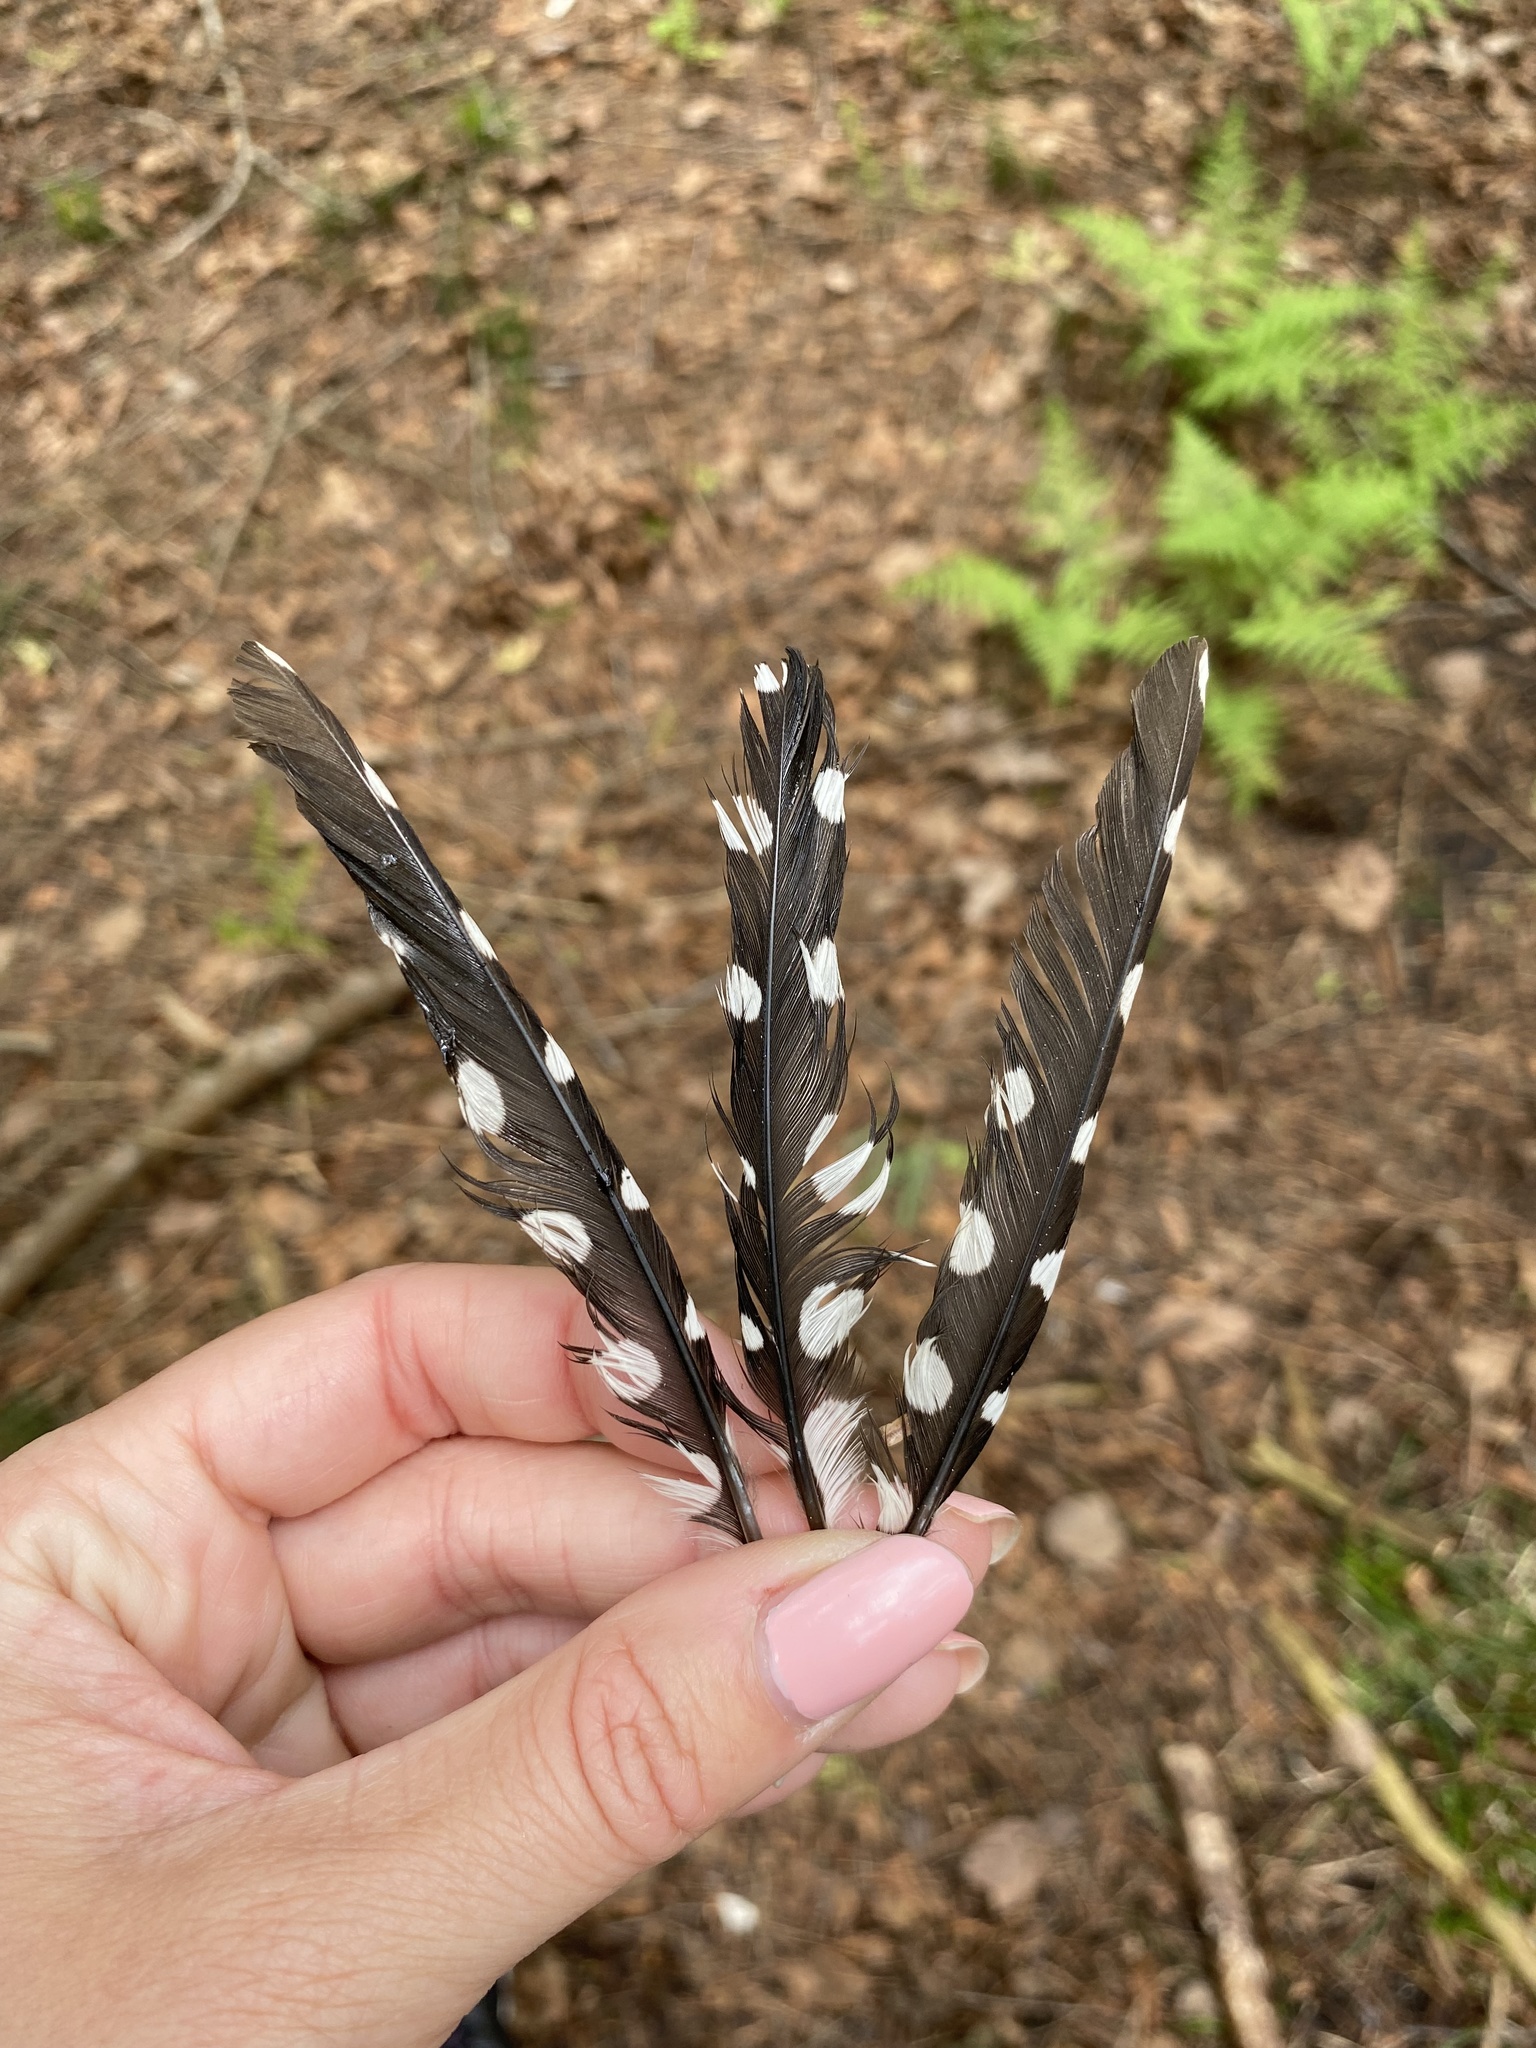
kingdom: Animalia
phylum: Chordata
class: Aves
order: Piciformes
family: Picidae
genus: Leuconotopicus
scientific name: Leuconotopicus villosus
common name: Hairy woodpecker
